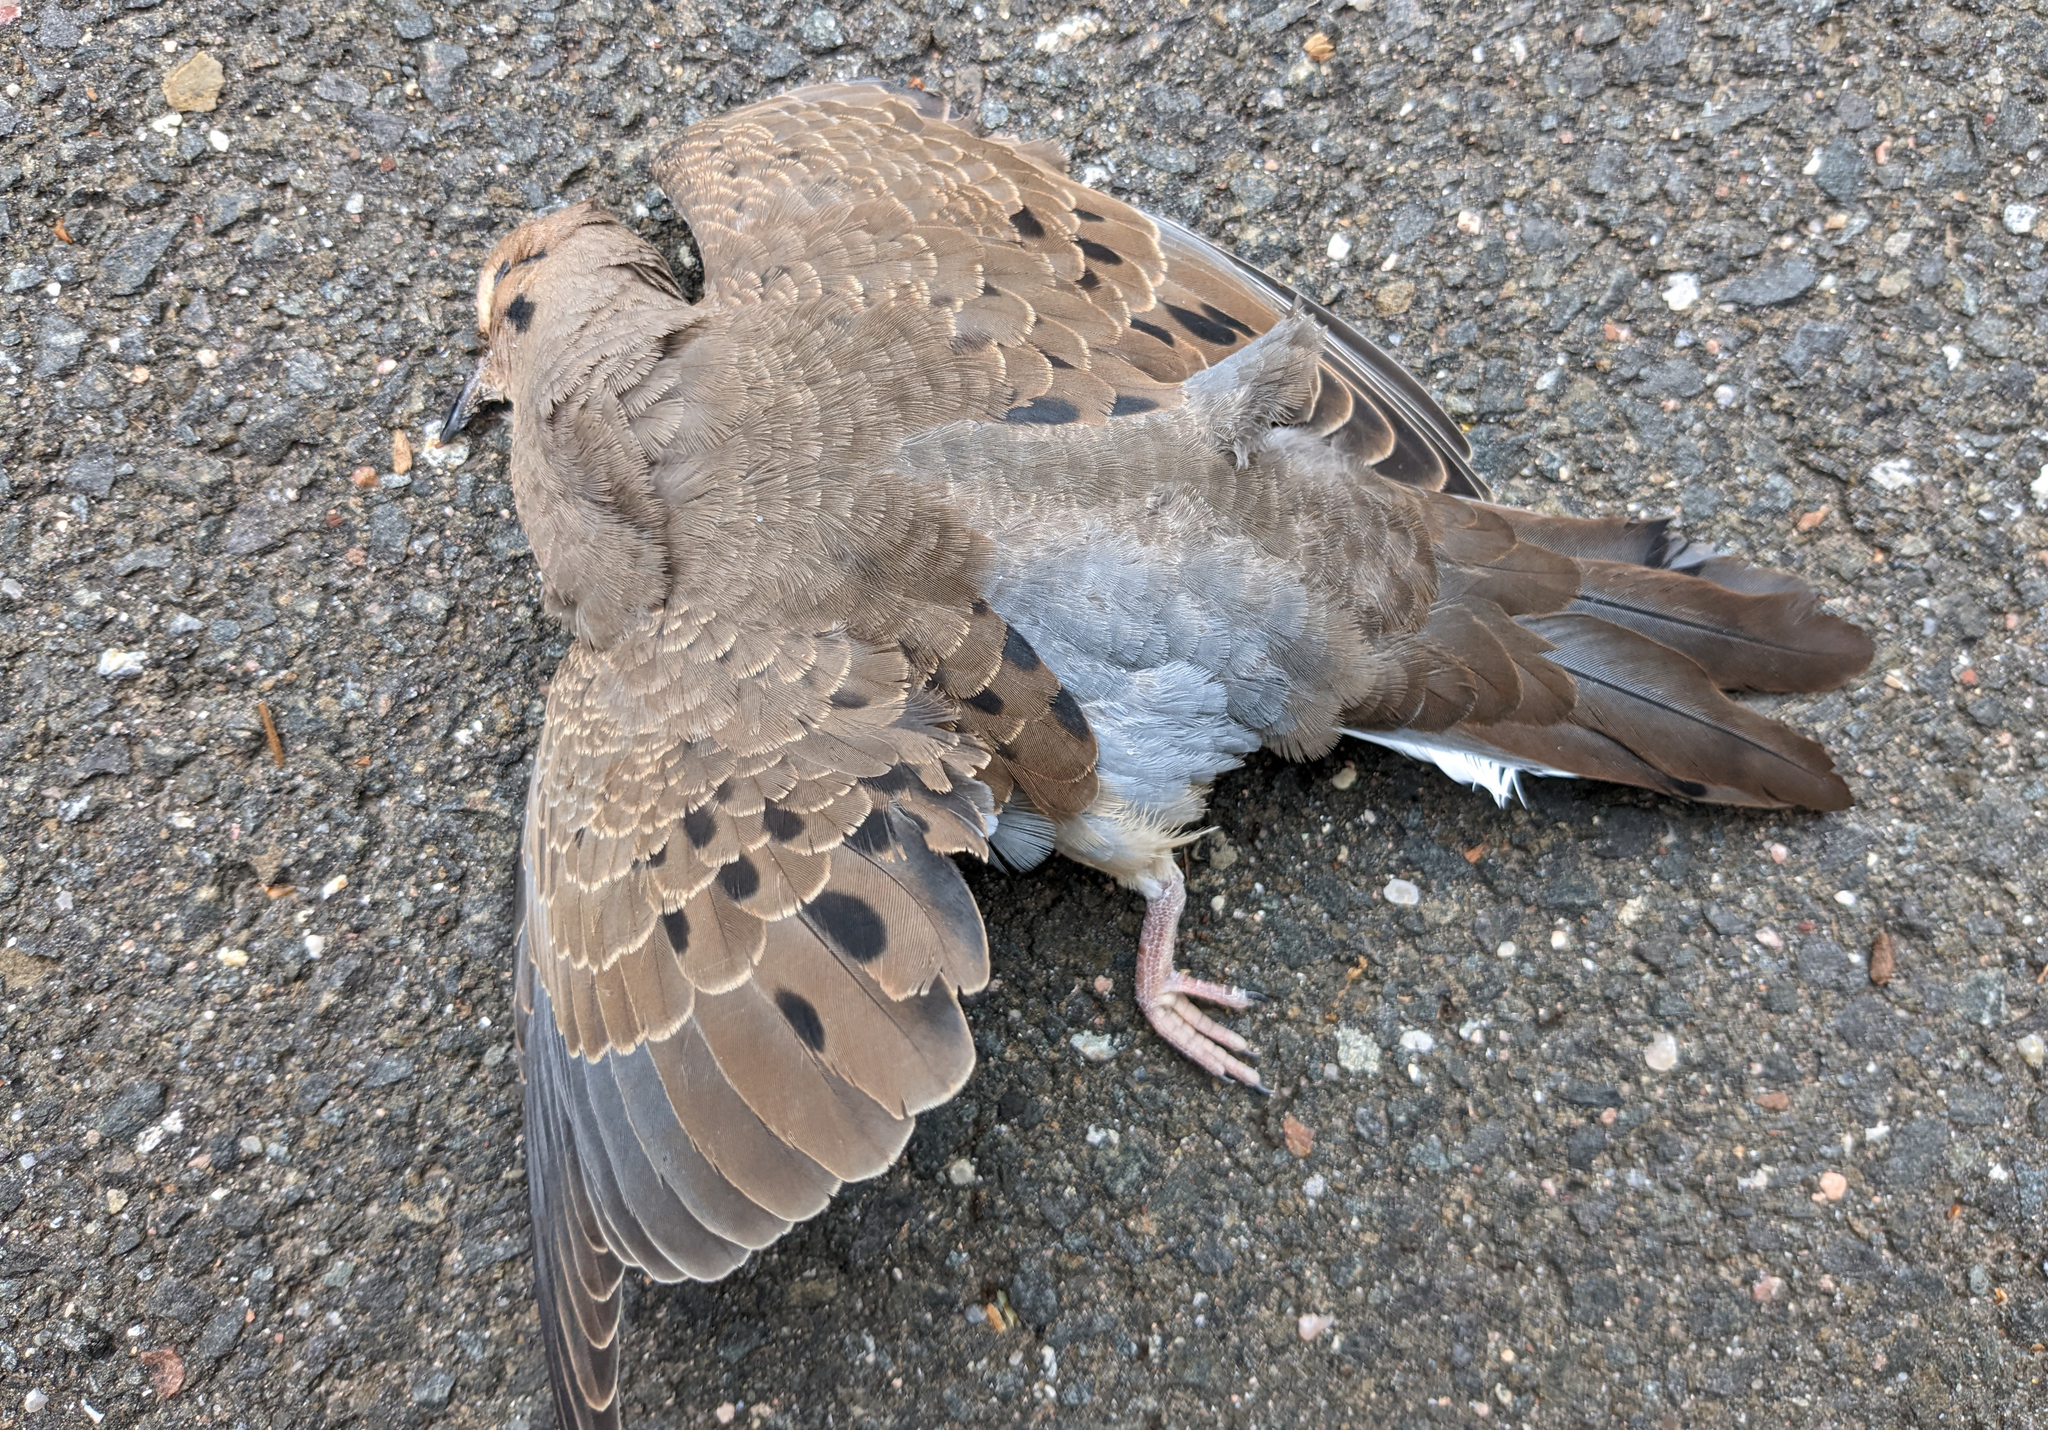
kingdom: Animalia
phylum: Chordata
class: Aves
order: Columbiformes
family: Columbidae
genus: Zenaida
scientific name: Zenaida macroura
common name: Mourning dove
